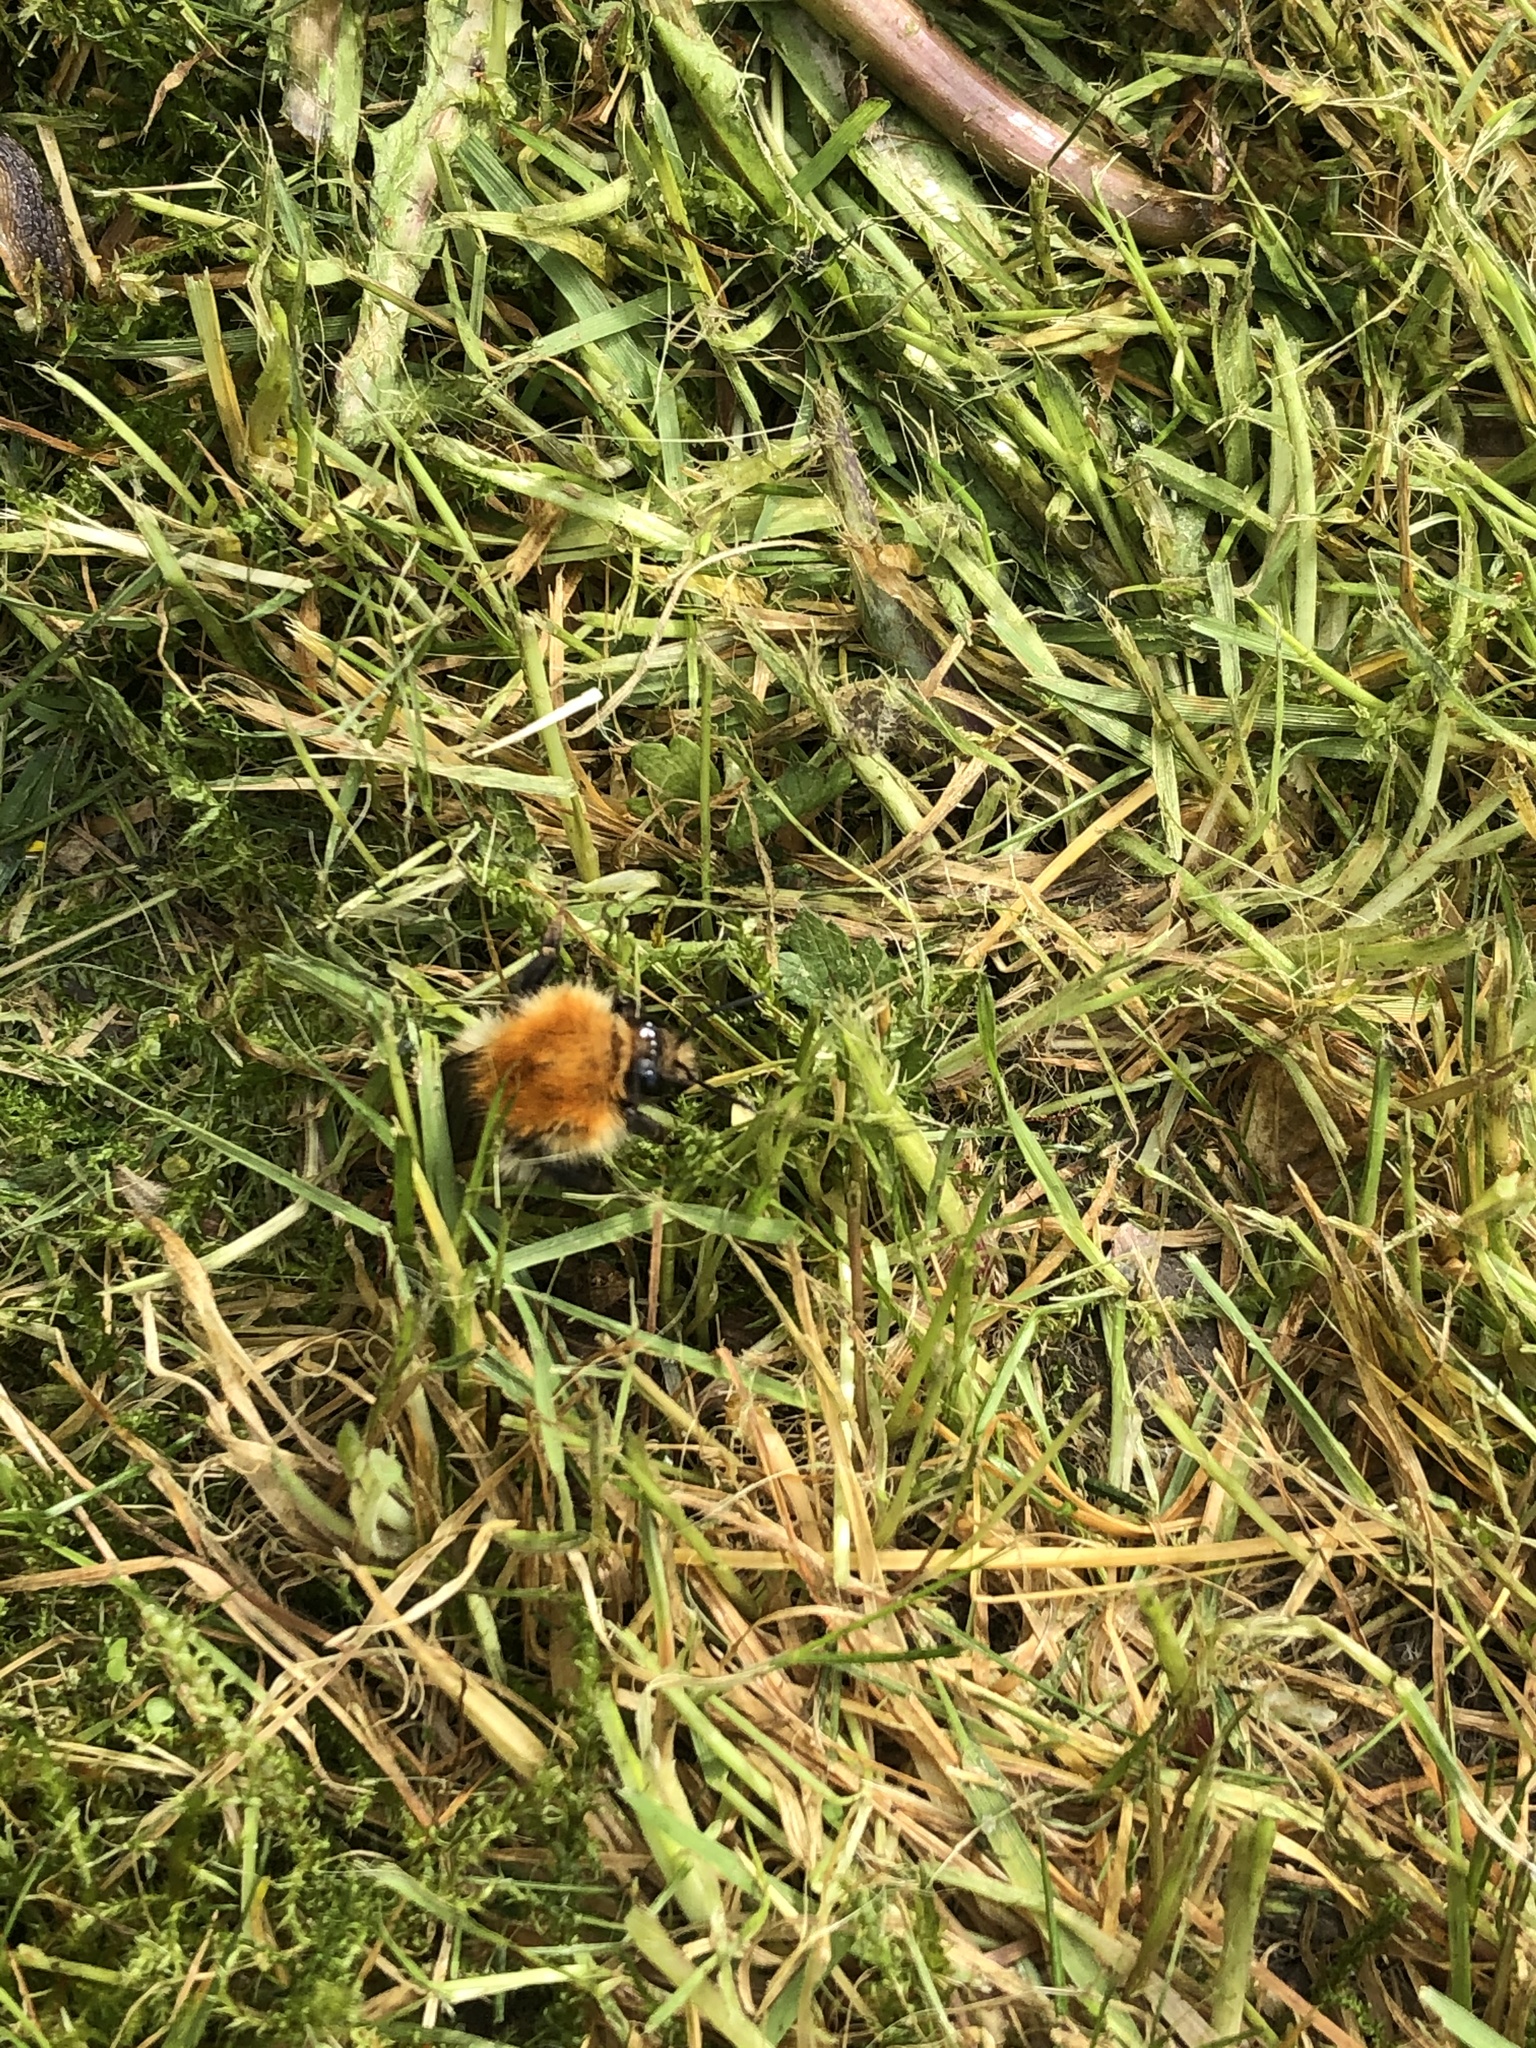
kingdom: Animalia
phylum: Arthropoda
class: Insecta
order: Hymenoptera
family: Apidae
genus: Bombus
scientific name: Bombus pascuorum
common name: Common carder bee
